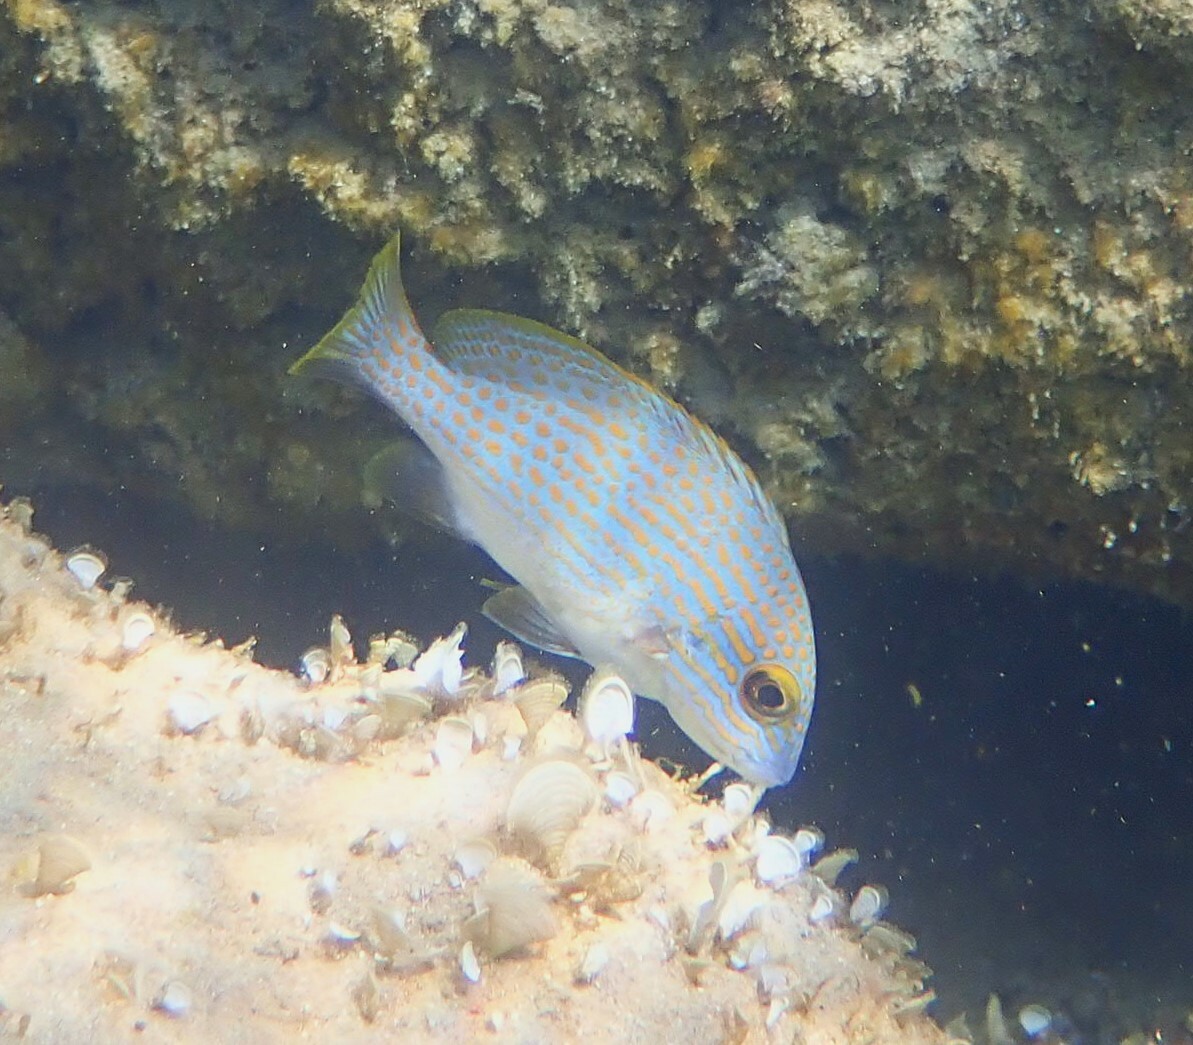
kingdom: Animalia
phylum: Chordata
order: Perciformes
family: Haemulidae
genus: Plectorhinchus
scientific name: Plectorhinchus flavomaculatus
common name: Netted sweetlips
